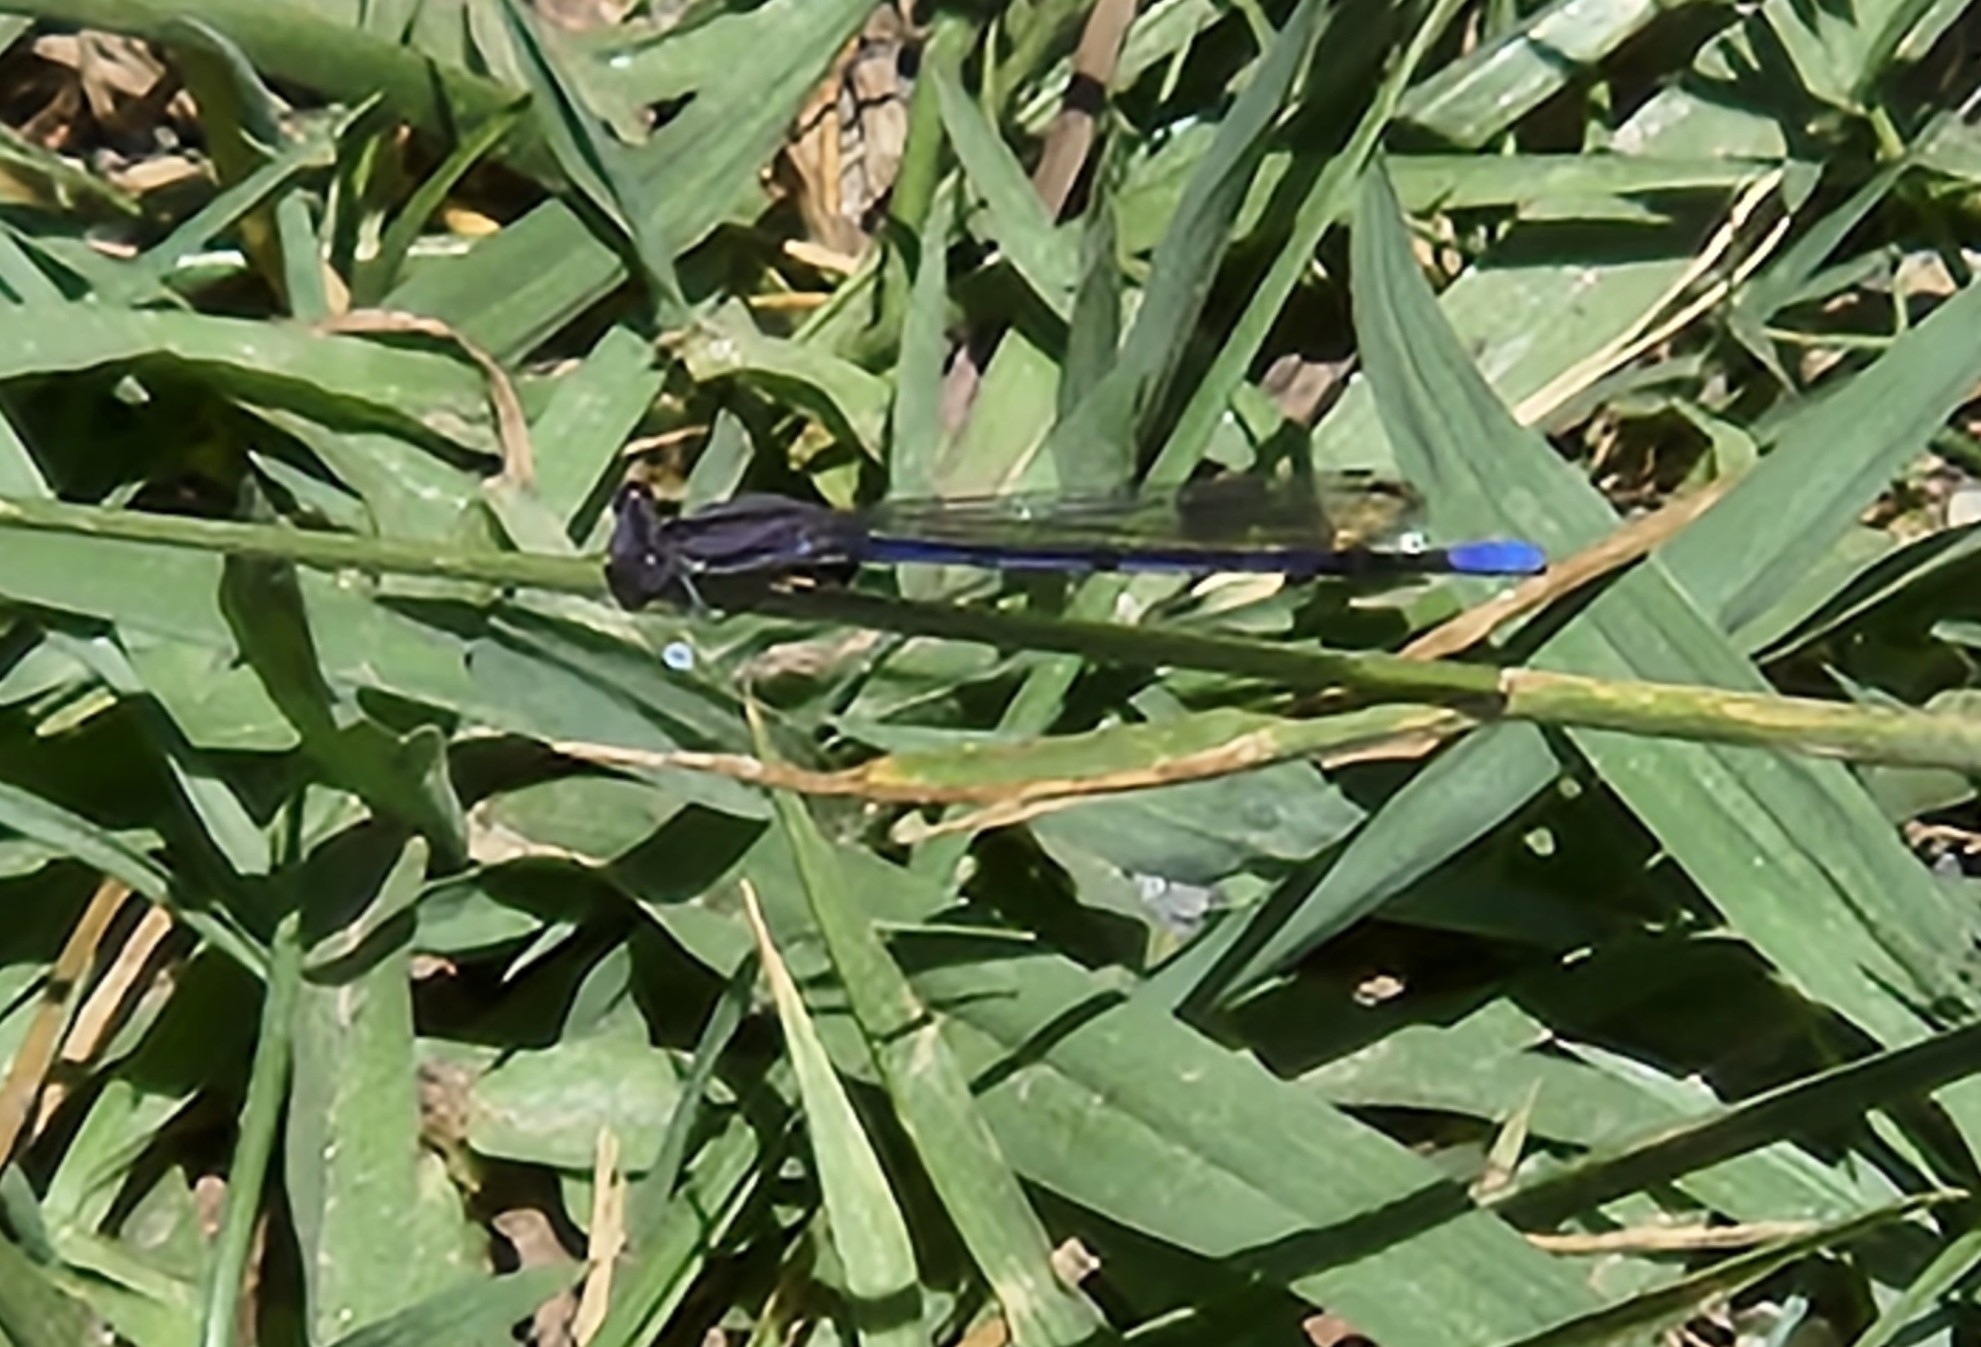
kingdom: Animalia
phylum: Arthropoda
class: Insecta
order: Odonata
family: Coenagrionidae
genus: Argia
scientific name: Argia fumipennis
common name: Variable dancer
